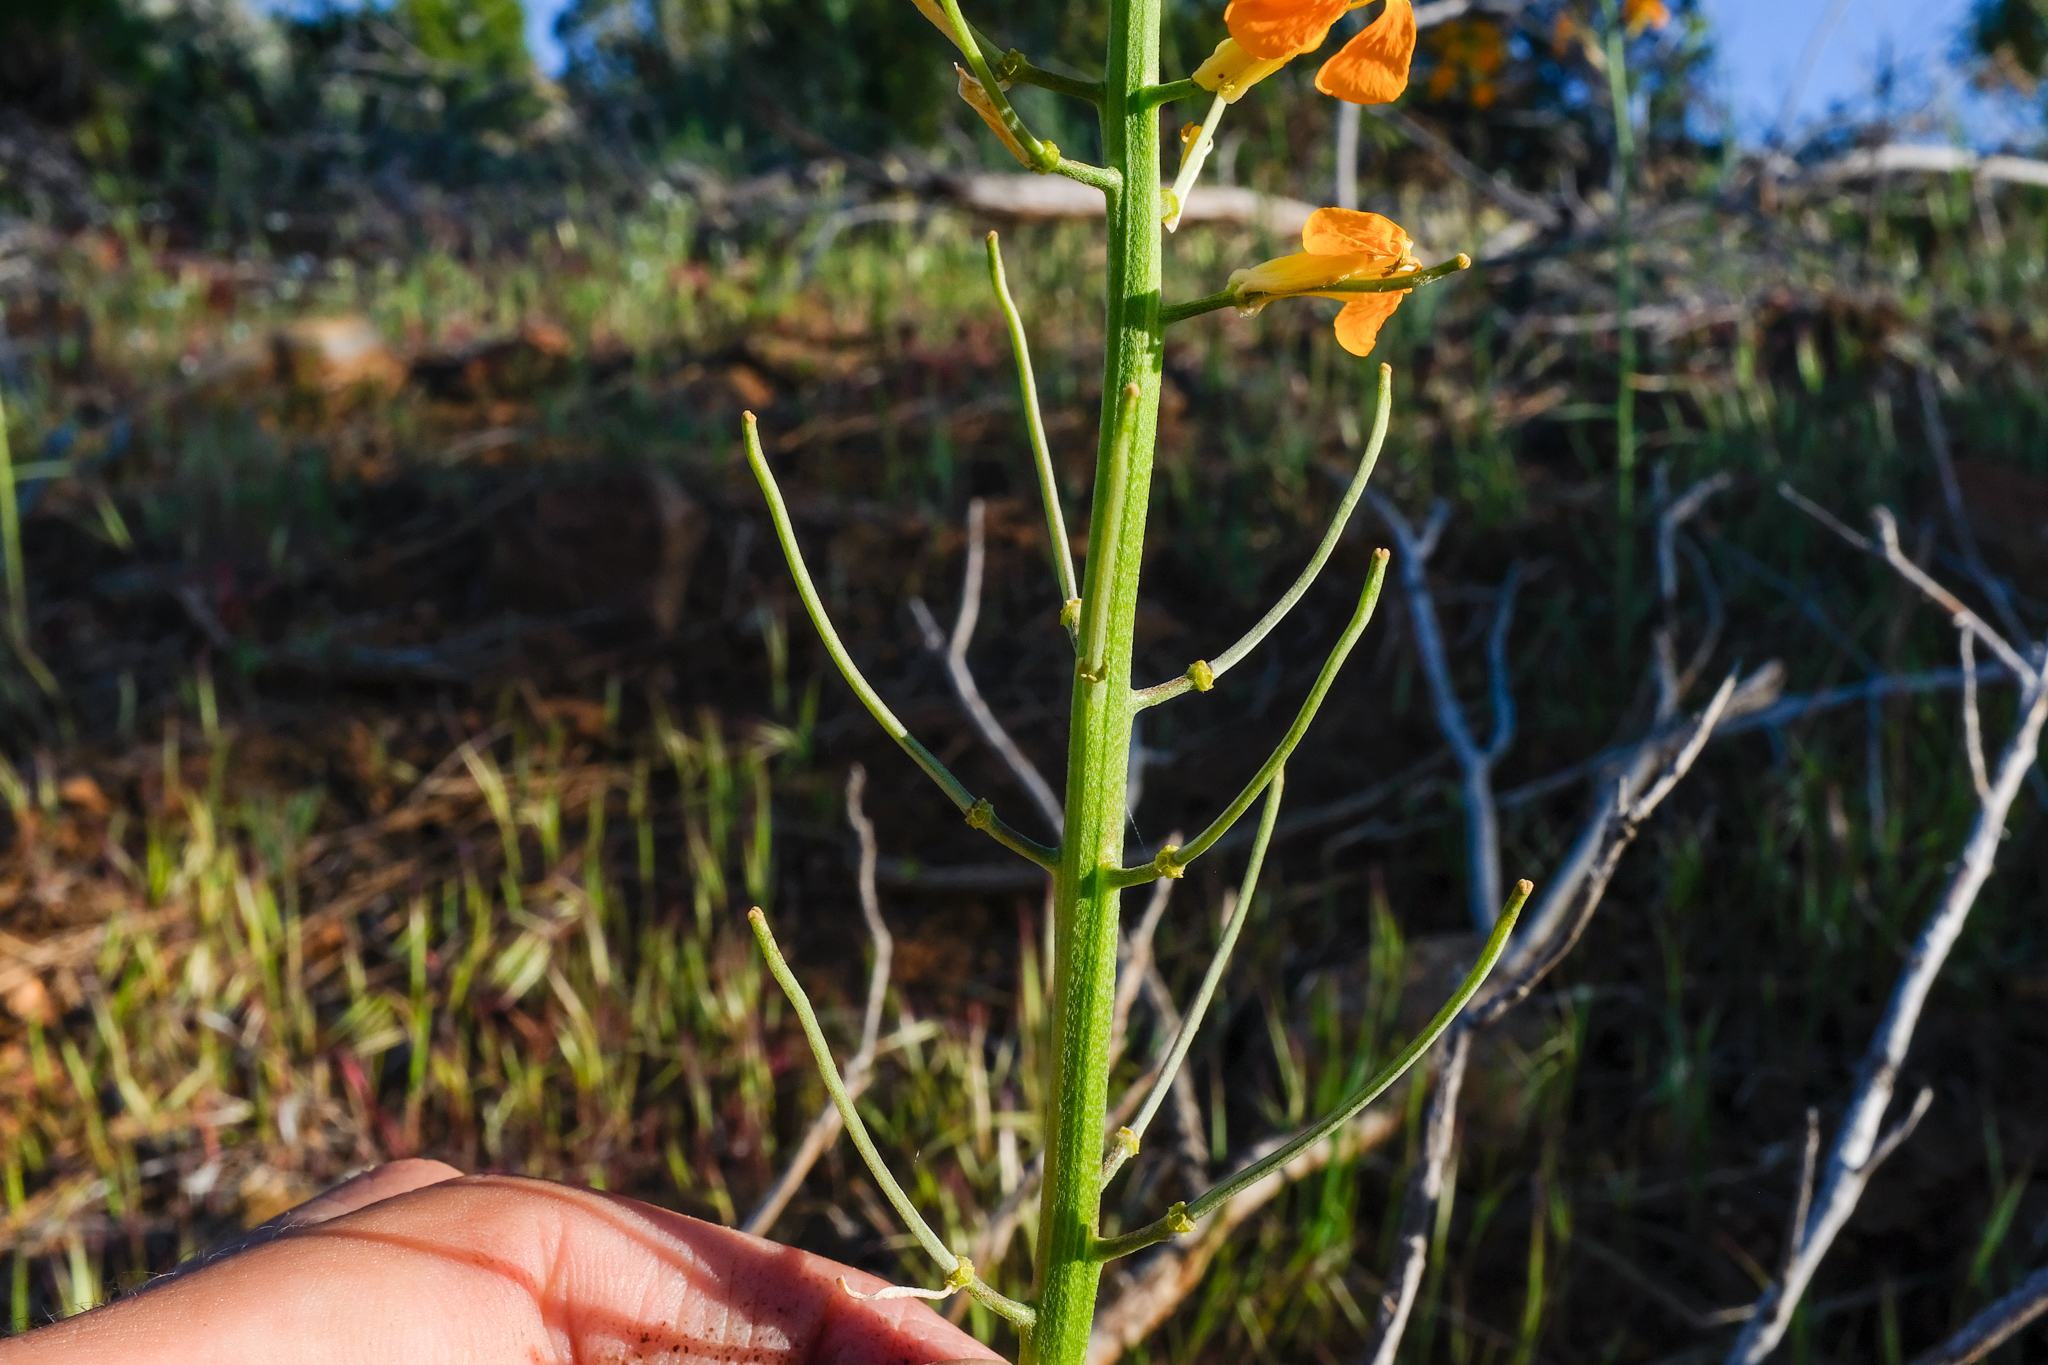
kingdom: Plantae
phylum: Tracheophyta
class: Magnoliopsida
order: Brassicales
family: Brassicaceae
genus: Erysimum
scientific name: Erysimum capitatum
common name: Western wallflower
